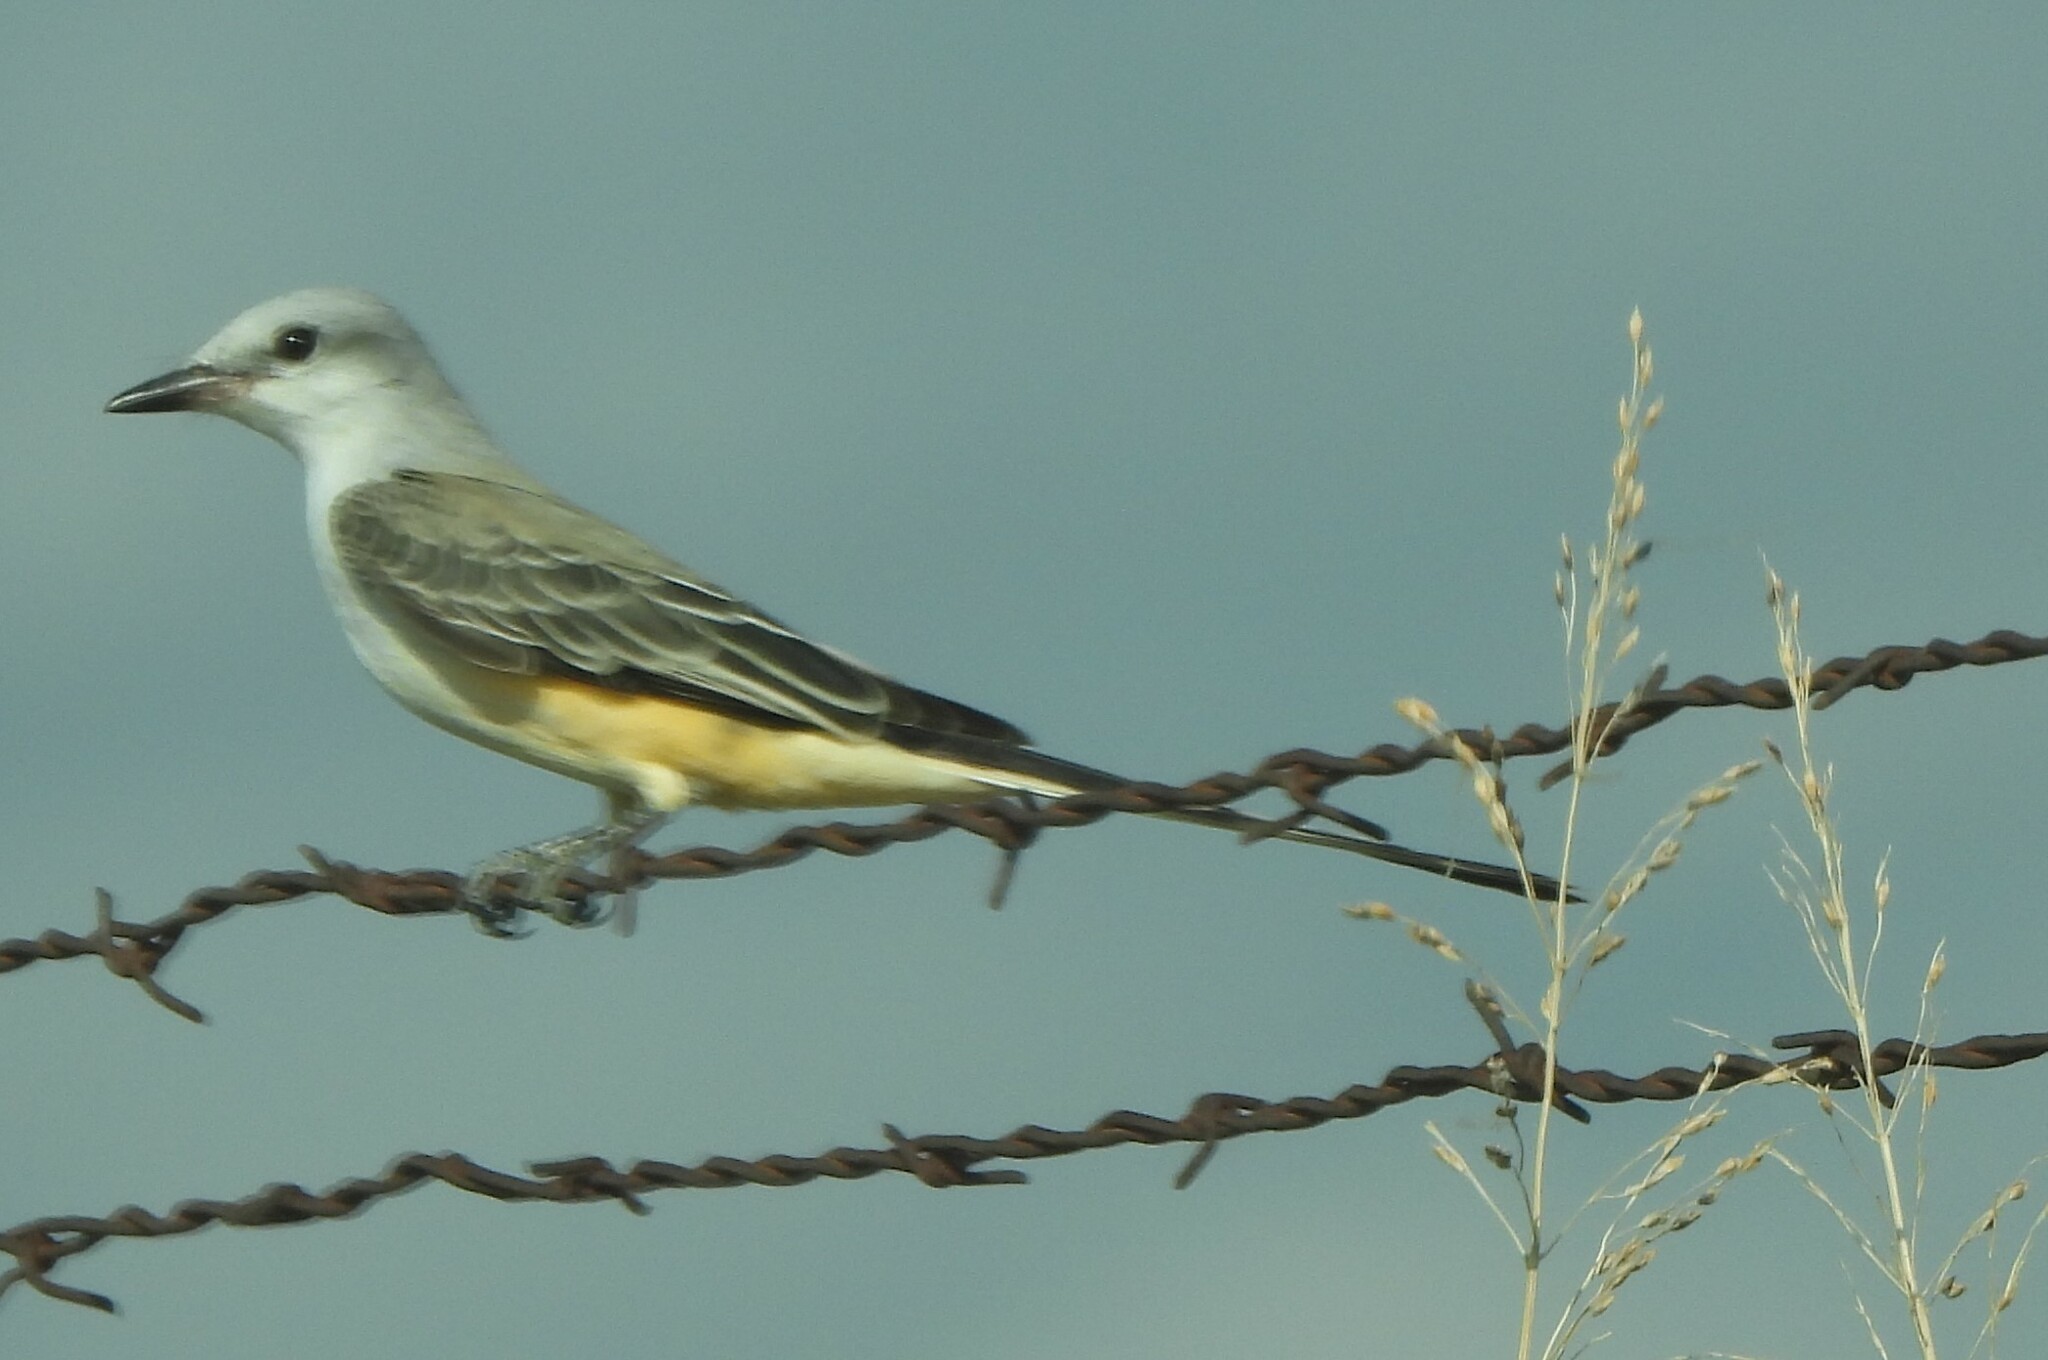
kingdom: Animalia
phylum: Chordata
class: Aves
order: Passeriformes
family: Tyrannidae
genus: Tyrannus
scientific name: Tyrannus forficatus
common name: Scissor-tailed flycatcher
